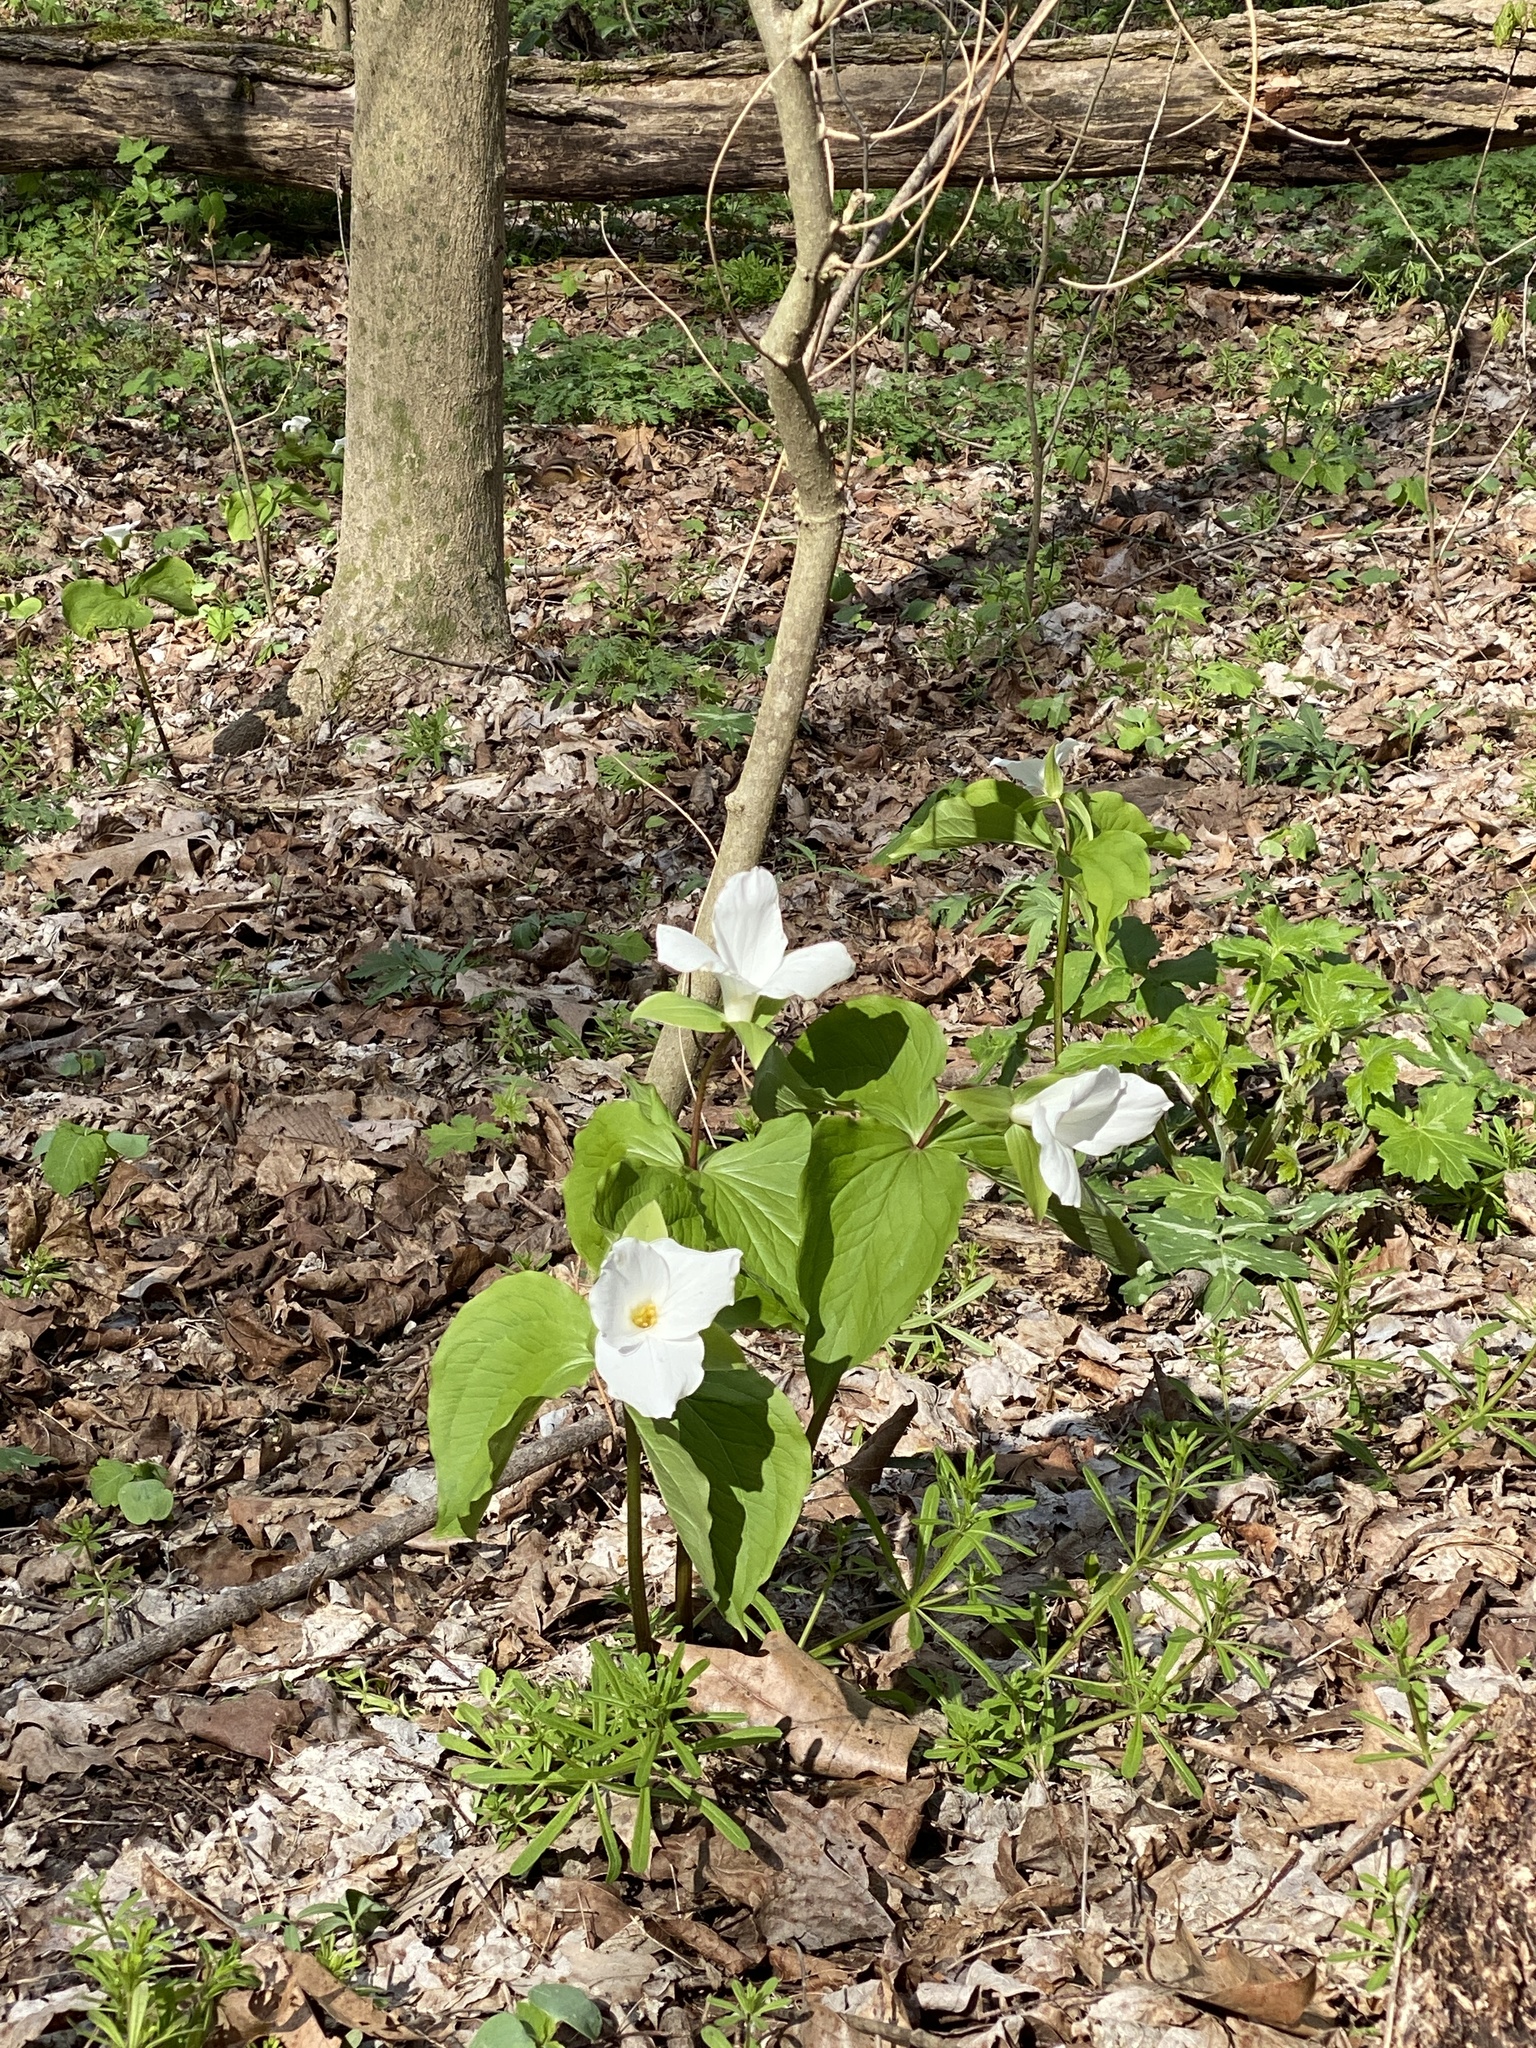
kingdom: Plantae
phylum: Tracheophyta
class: Liliopsida
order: Liliales
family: Melanthiaceae
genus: Trillium
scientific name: Trillium grandiflorum
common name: Great white trillium
